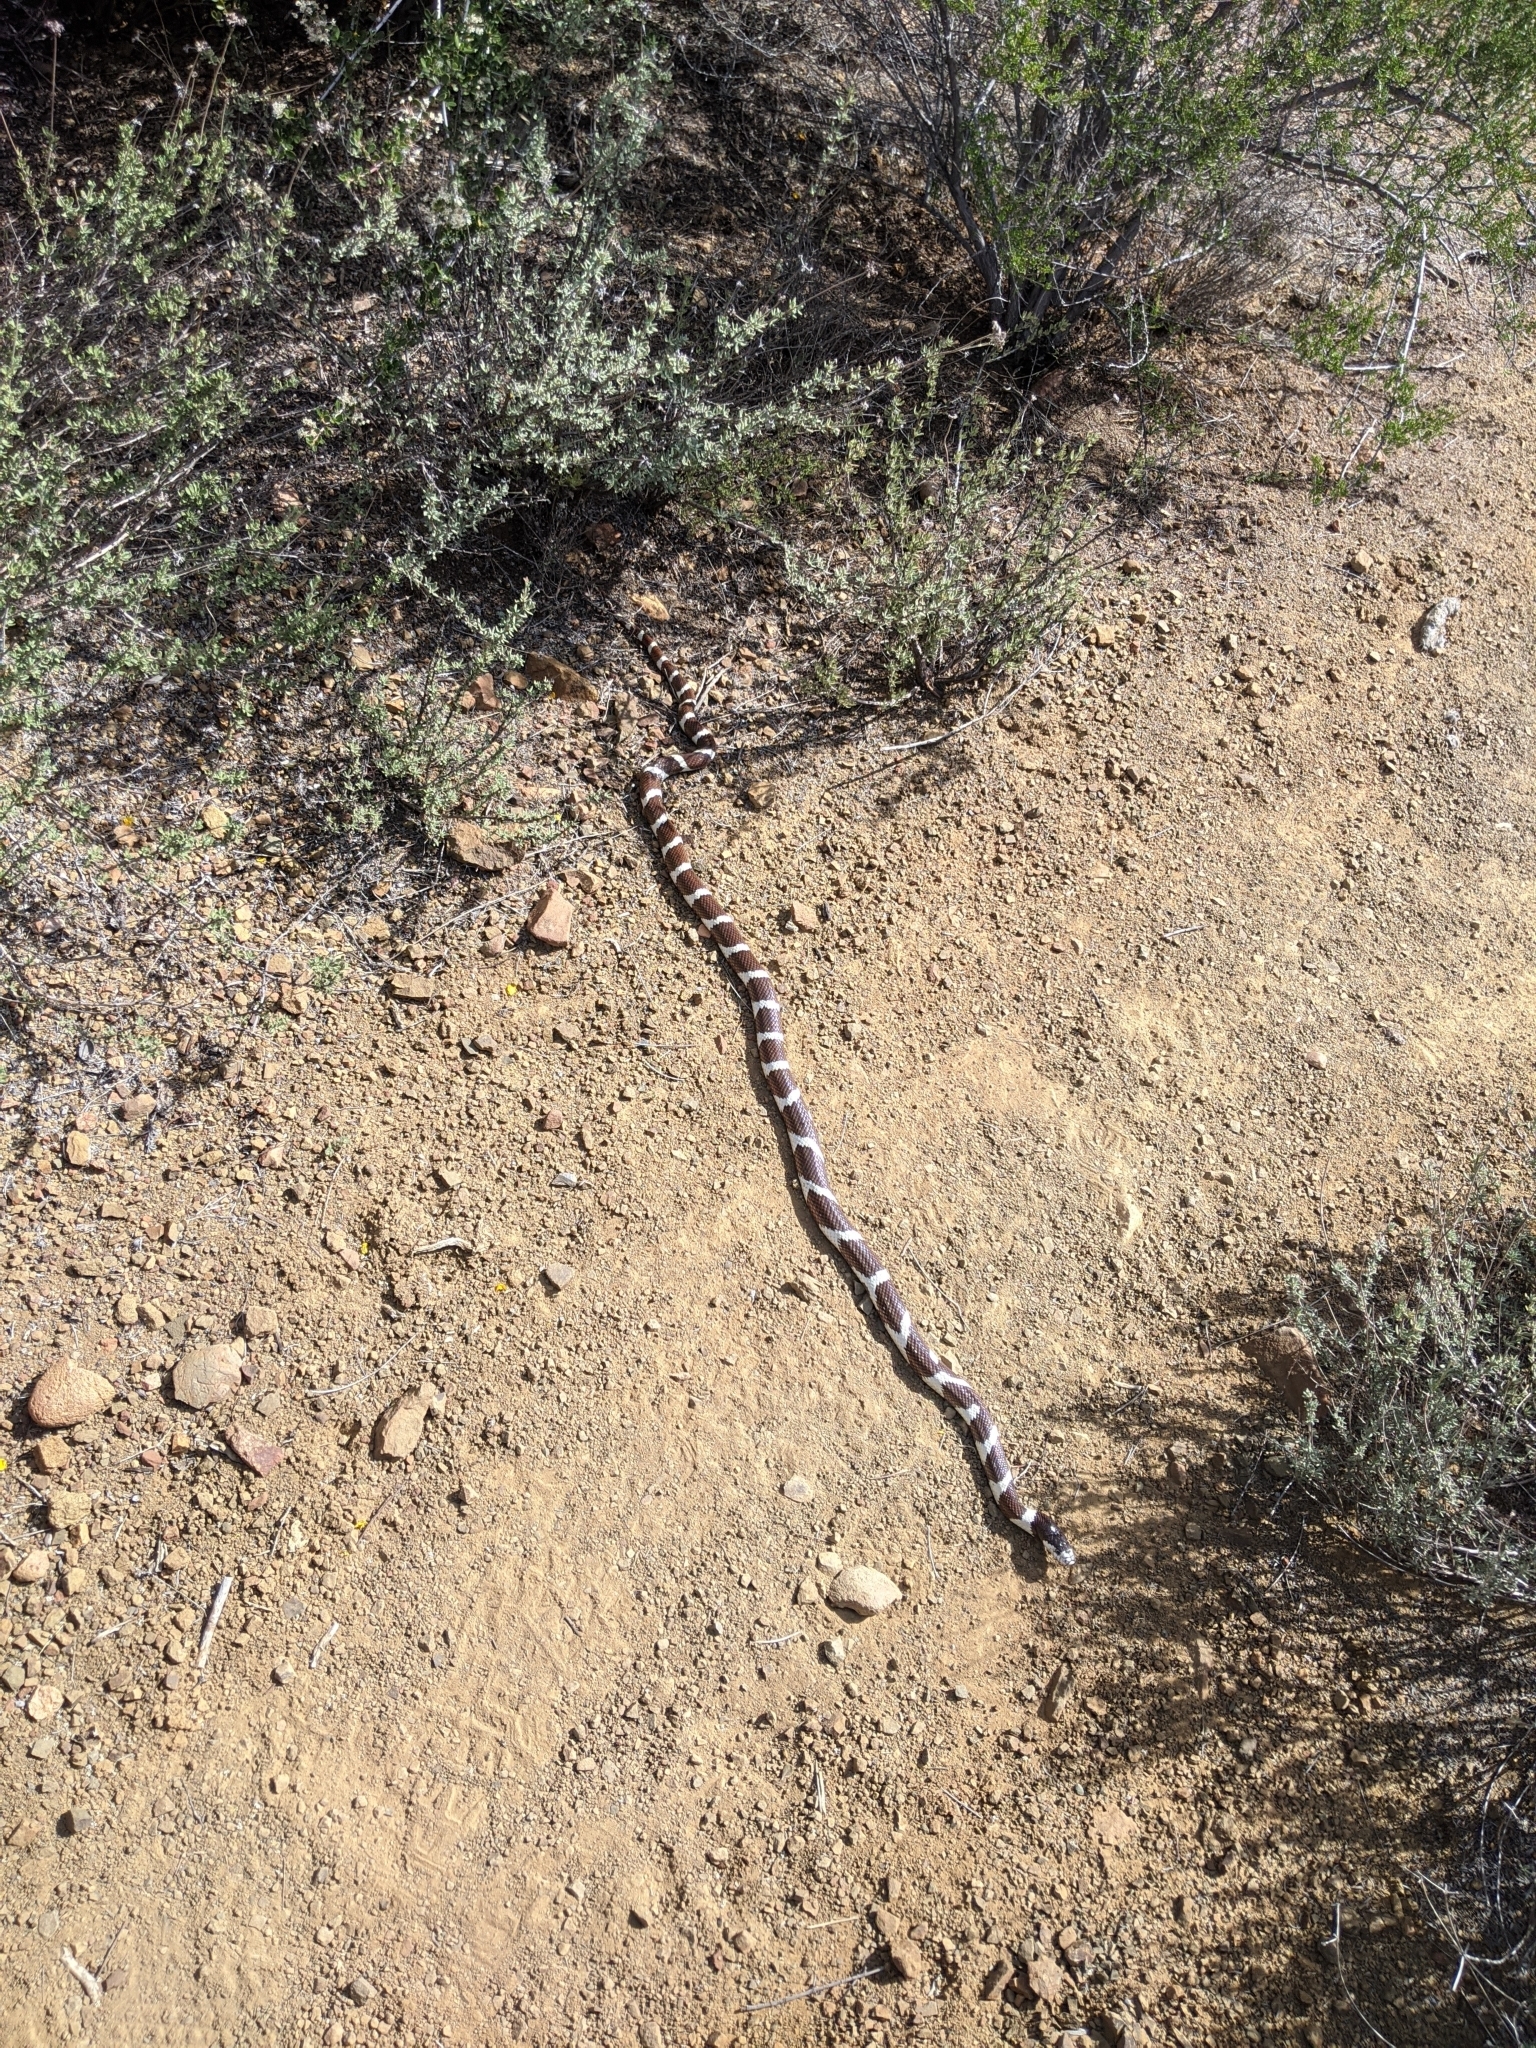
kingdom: Animalia
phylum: Chordata
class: Squamata
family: Colubridae
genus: Lampropeltis
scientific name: Lampropeltis californiae
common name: California kingsnake
